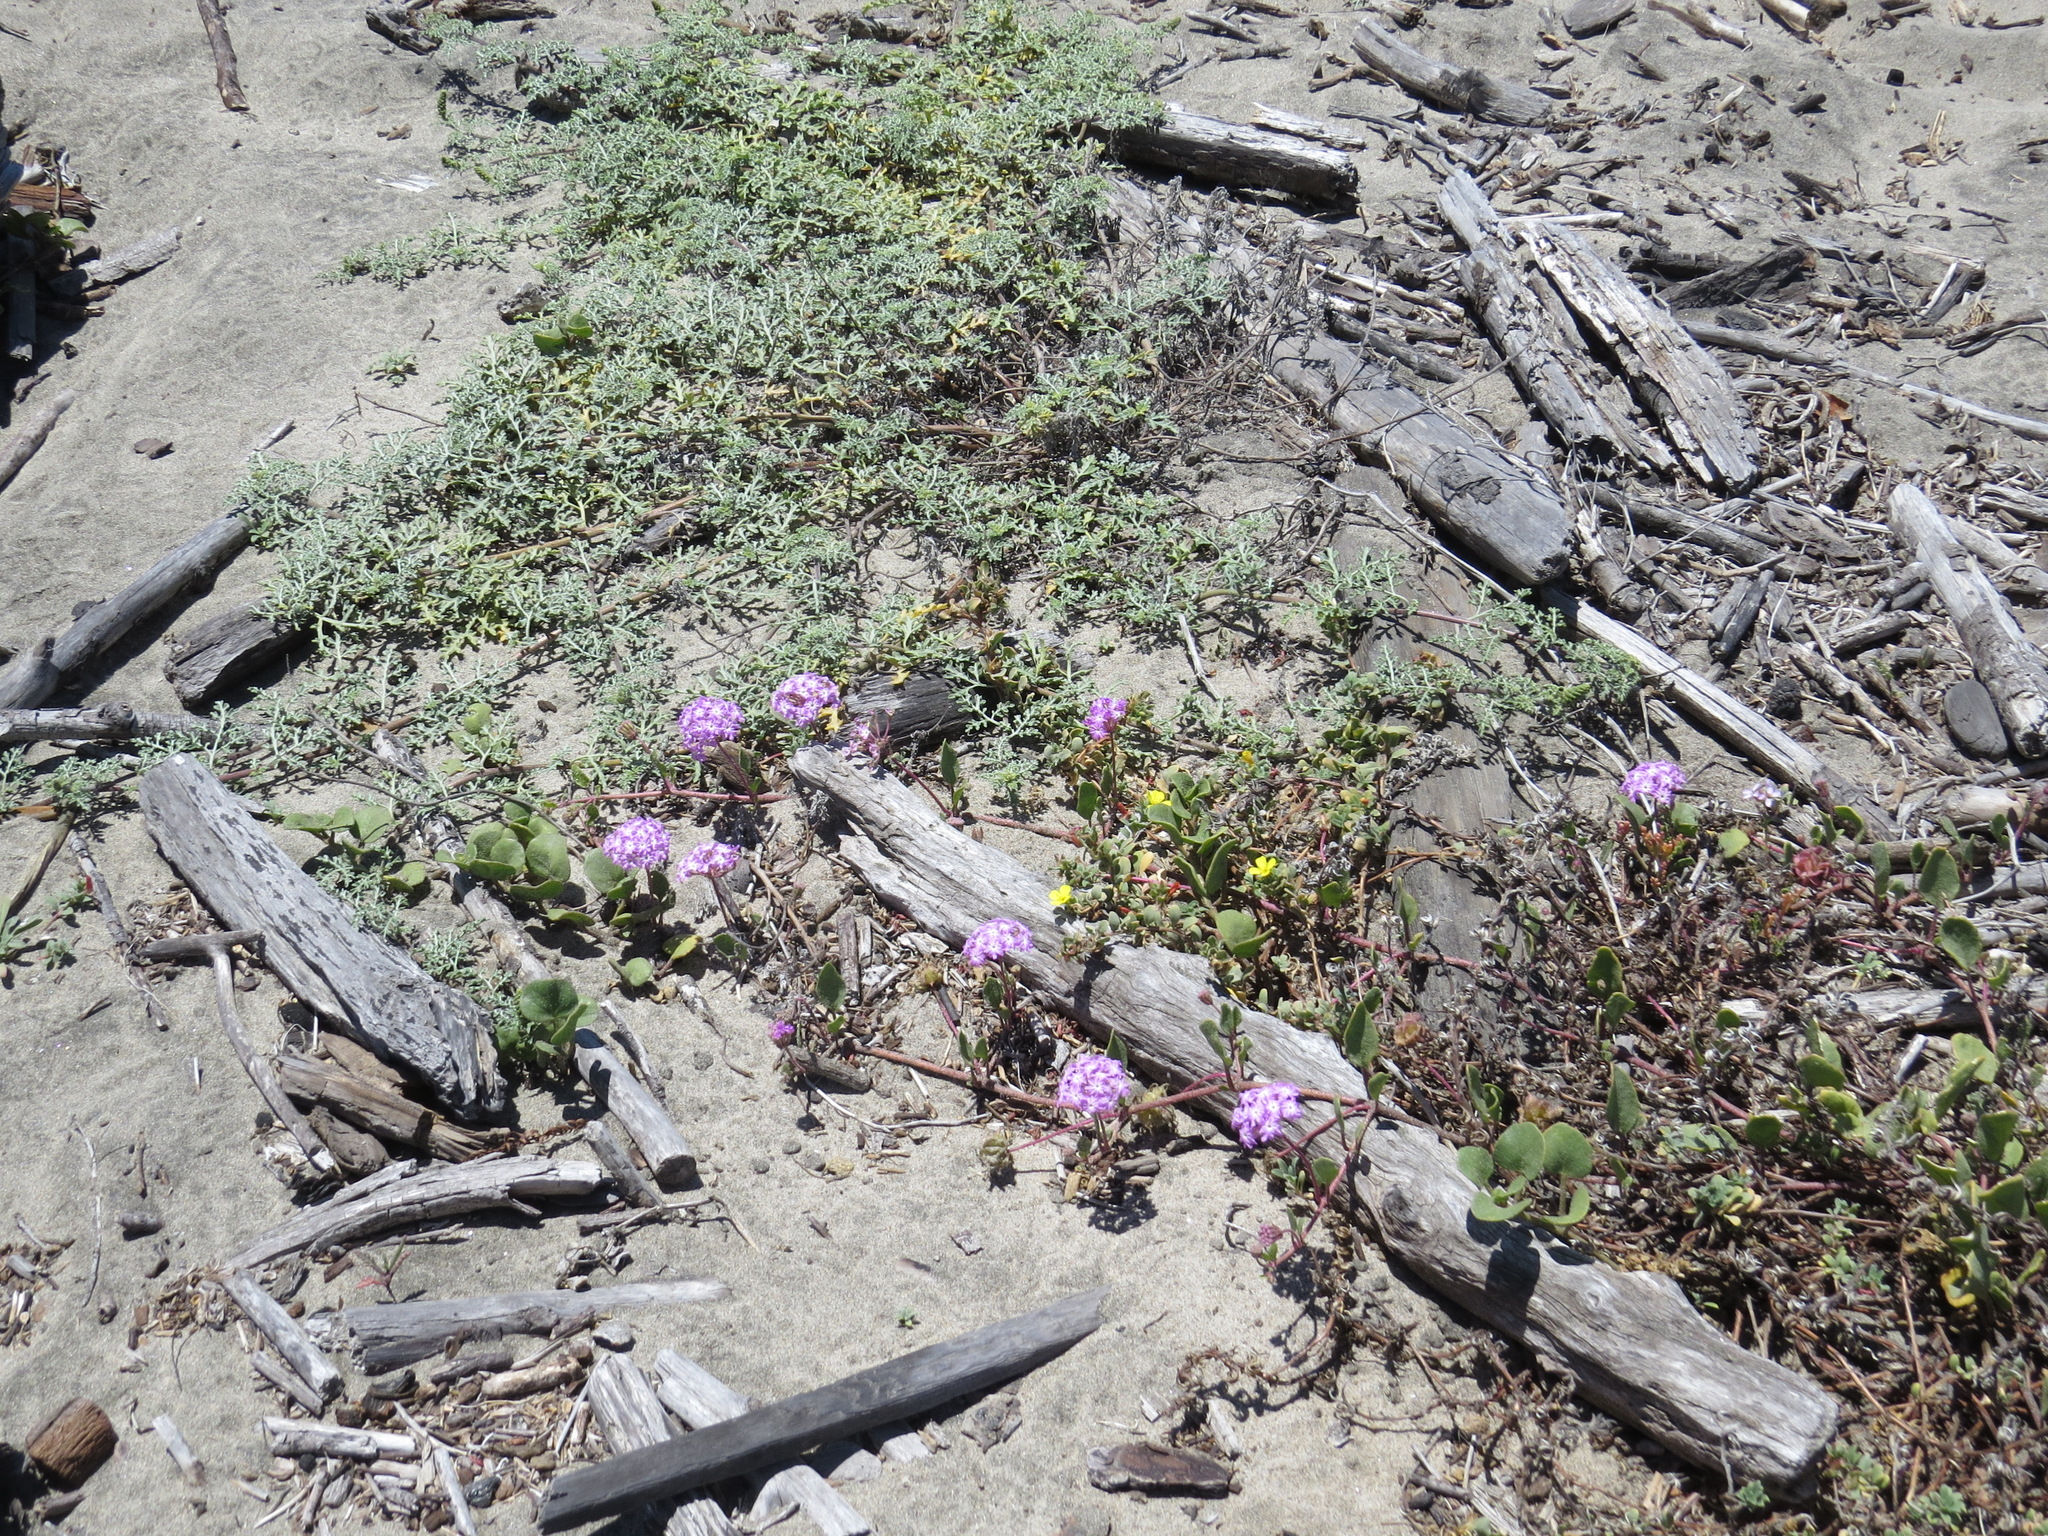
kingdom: Plantae
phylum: Tracheophyta
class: Magnoliopsida
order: Caryophyllales
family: Nyctaginaceae
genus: Abronia
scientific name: Abronia umbellata
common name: Sand-verbena
